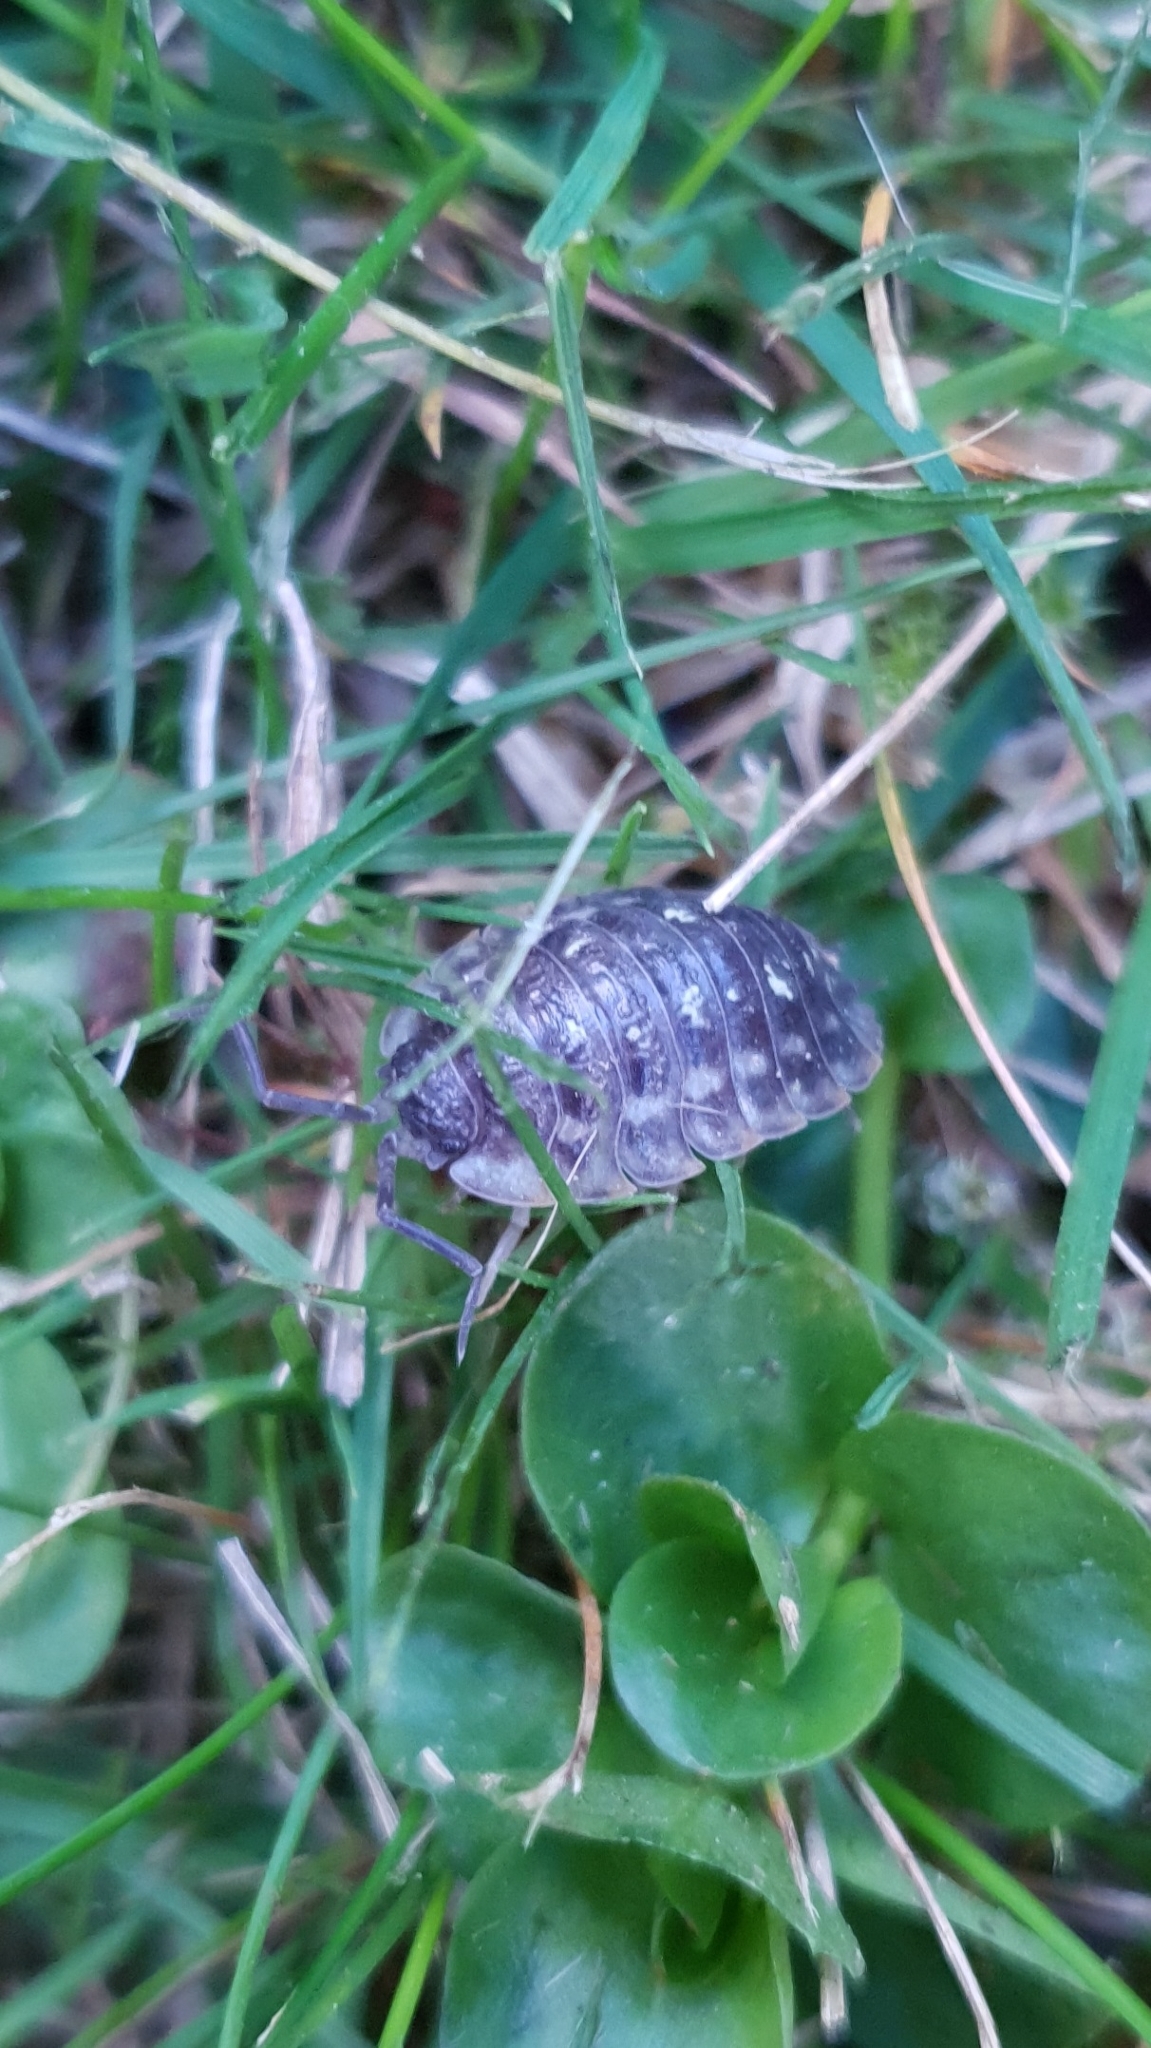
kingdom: Animalia
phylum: Arthropoda
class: Malacostraca
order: Isopoda
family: Oniscidae
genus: Oniscus
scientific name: Oniscus asellus
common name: Common shiny woodlouse
